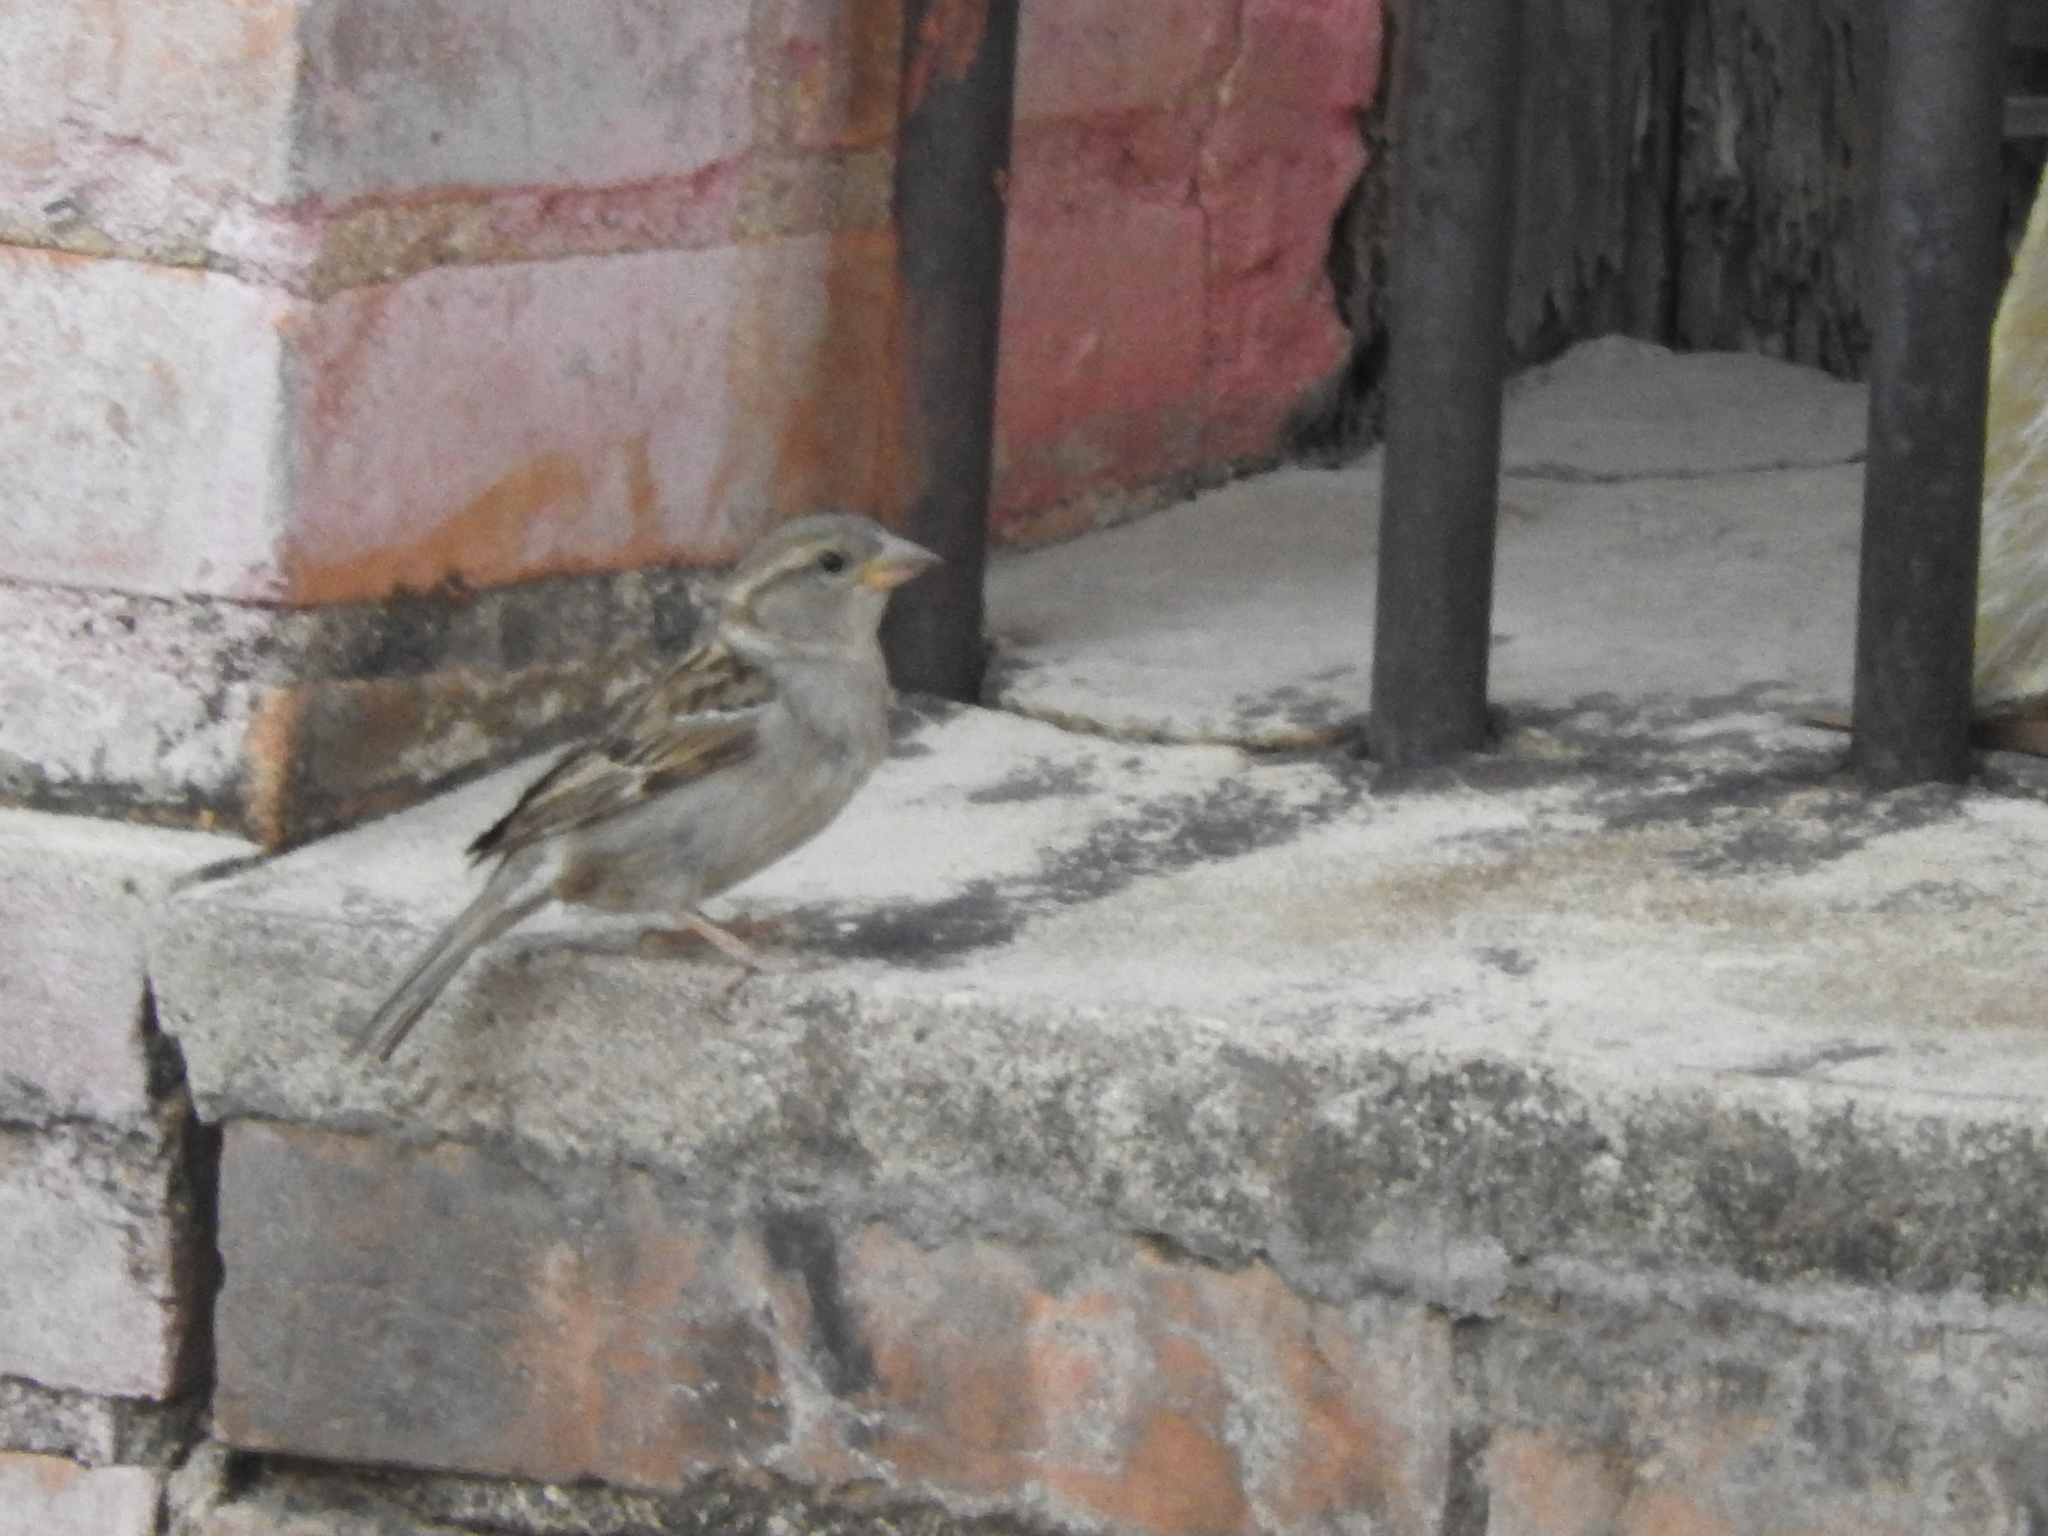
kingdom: Animalia
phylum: Chordata
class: Aves
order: Passeriformes
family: Passeridae
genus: Passer
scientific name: Passer domesticus
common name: House sparrow
